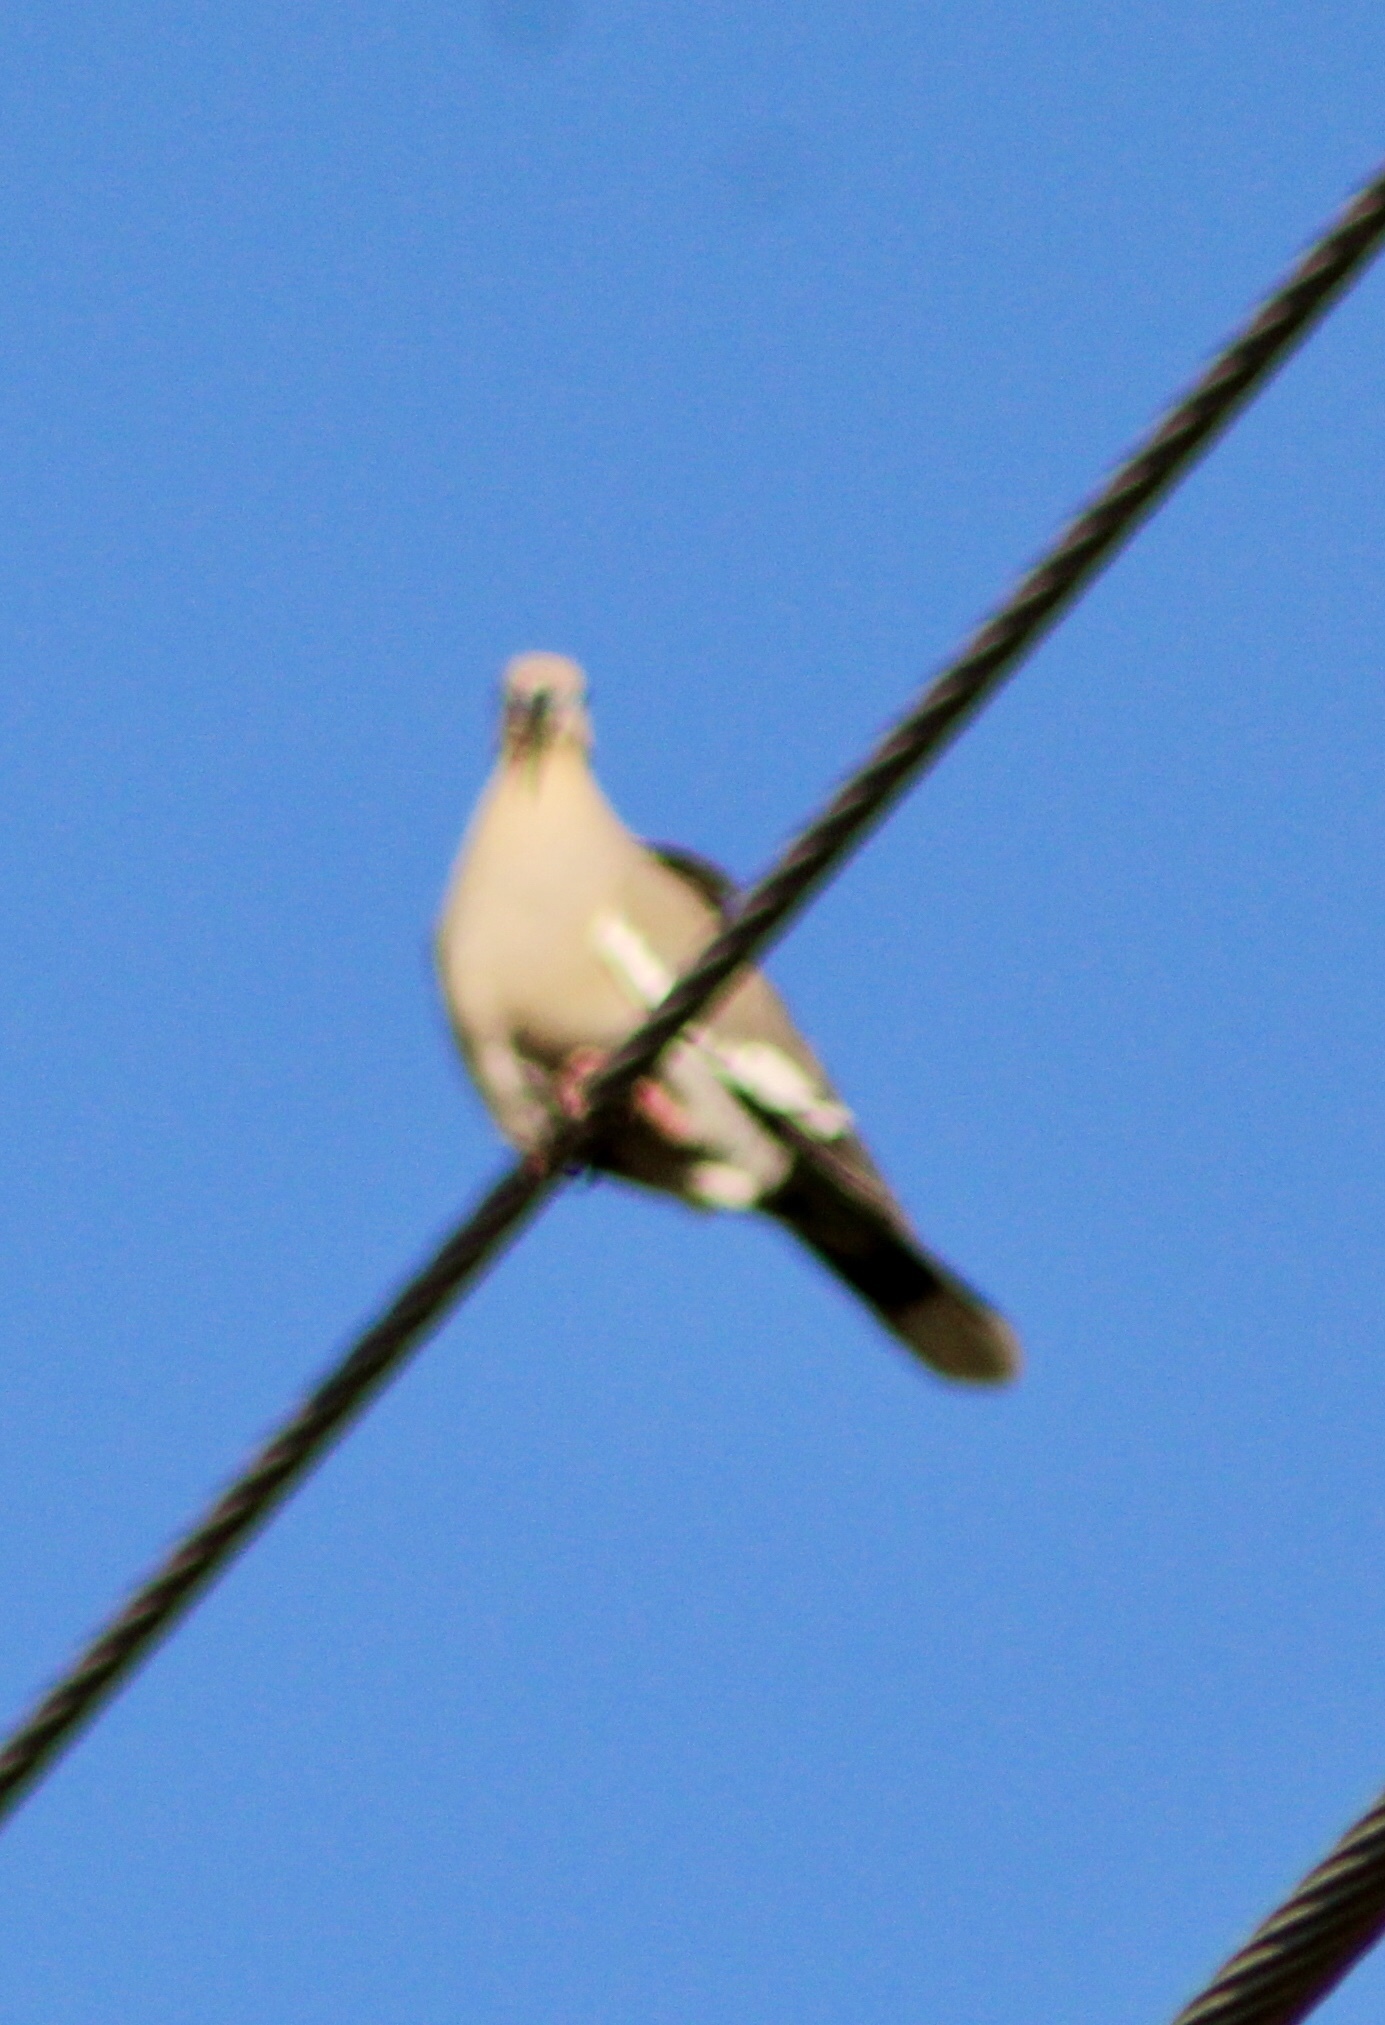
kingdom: Animalia
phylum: Chordata
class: Aves
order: Columbiformes
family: Columbidae
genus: Zenaida
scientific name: Zenaida asiatica
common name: White-winged dove
